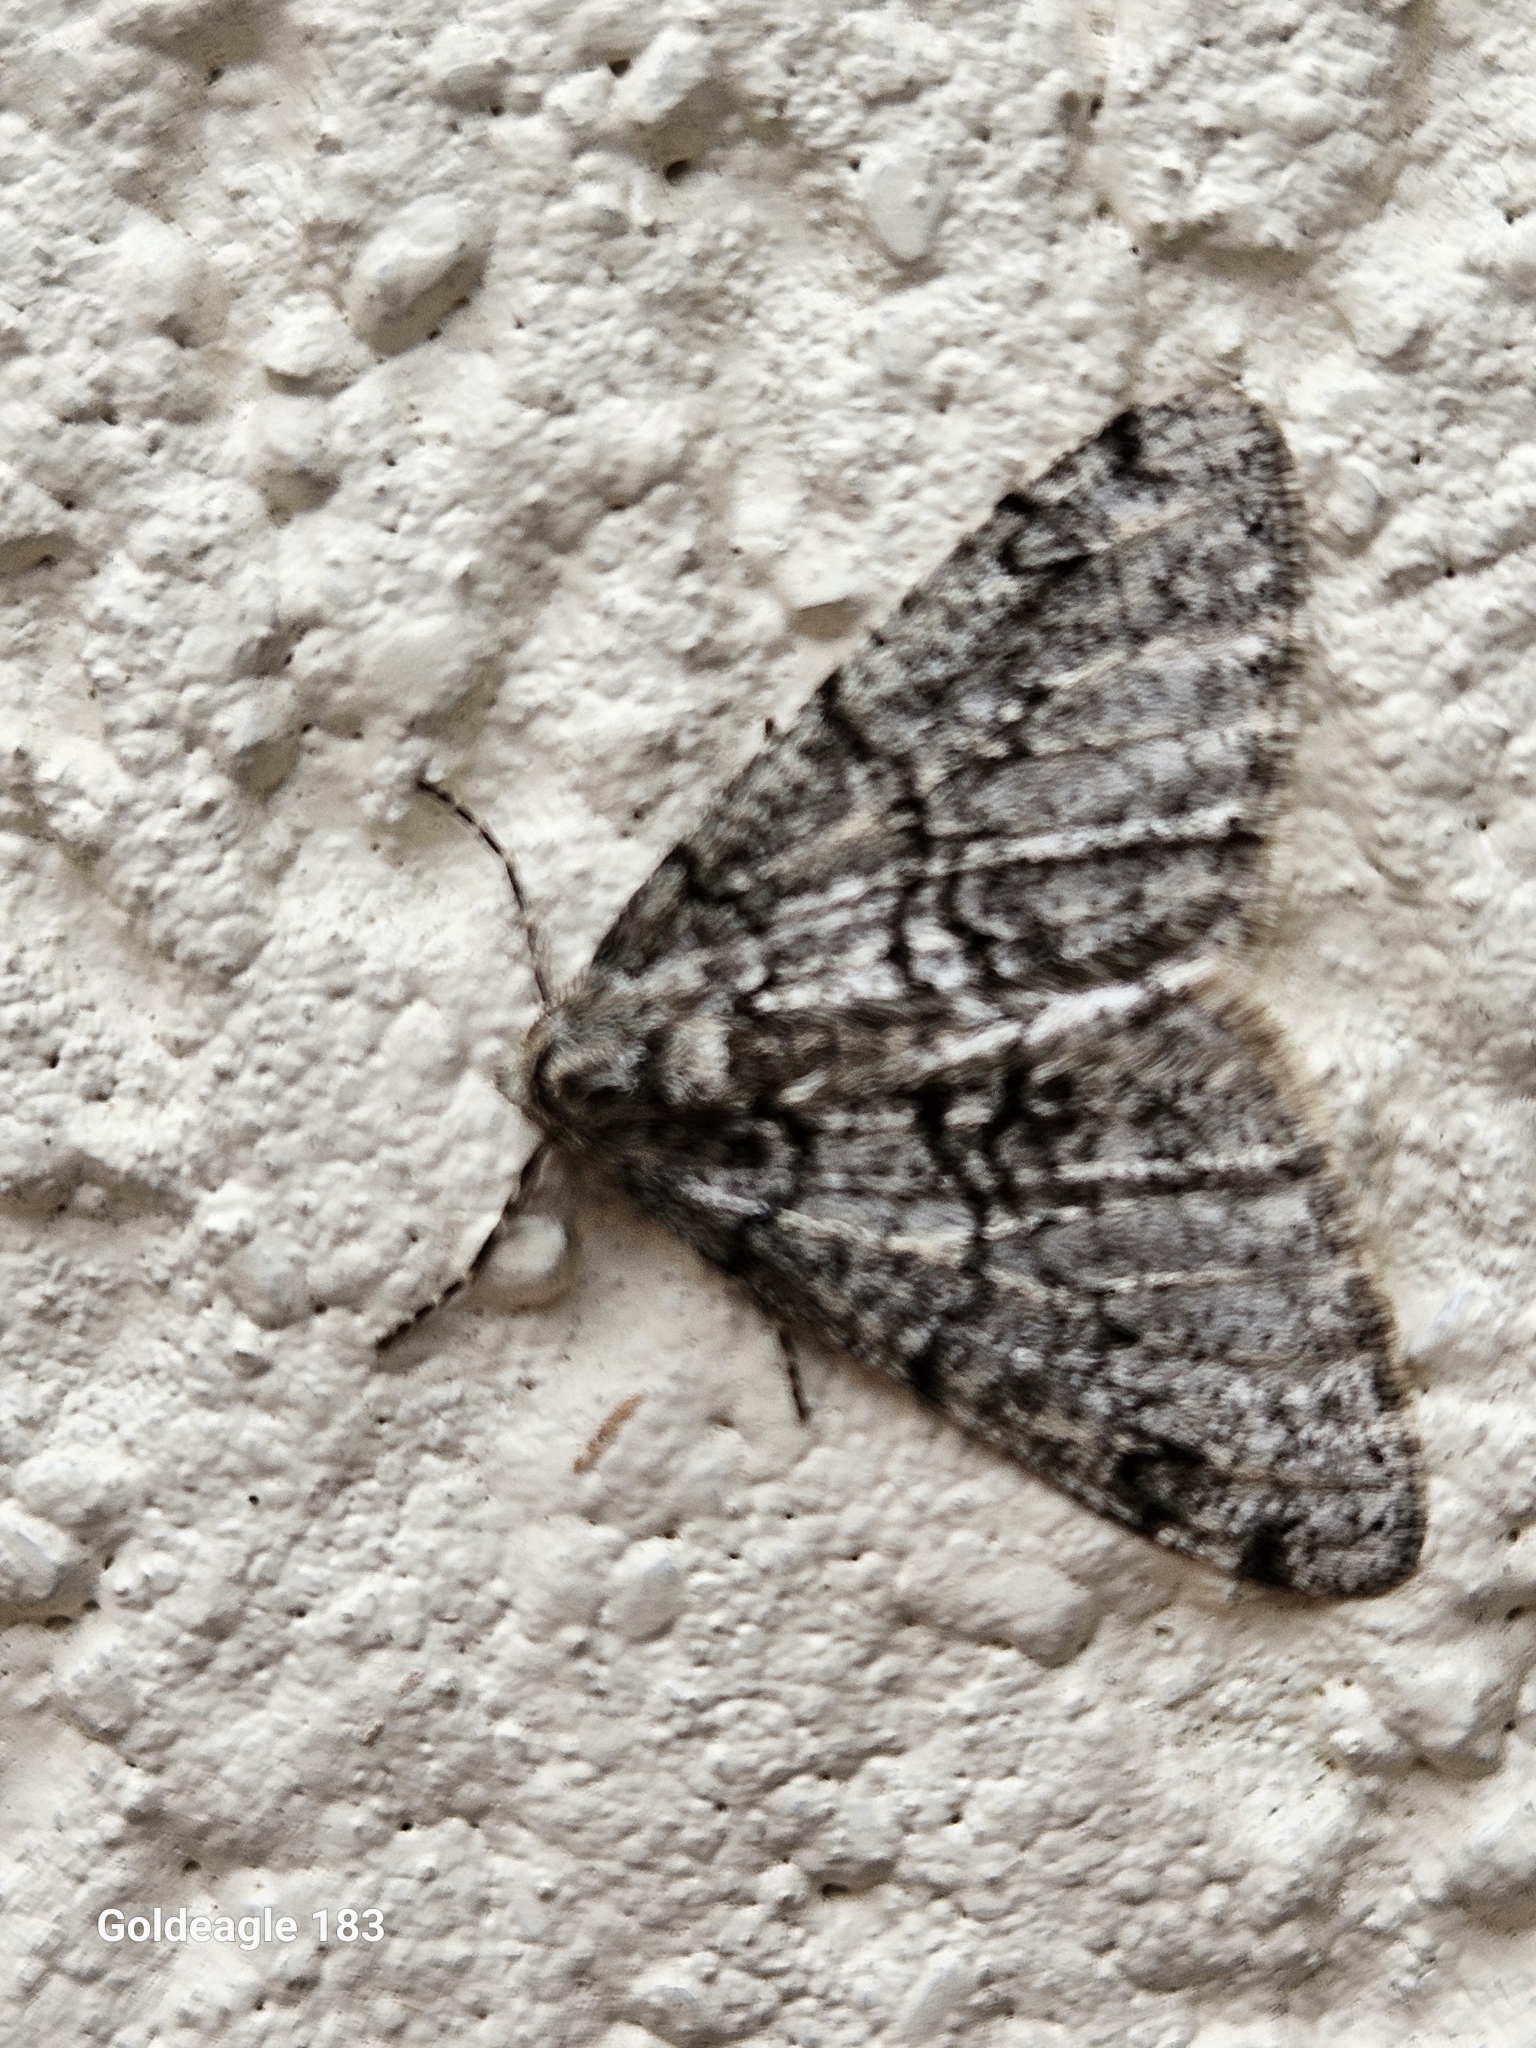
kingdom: Animalia
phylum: Arthropoda
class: Insecta
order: Lepidoptera
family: Geometridae
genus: Phigalia
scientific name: Phigalia denticulata
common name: Toothed phigalia
